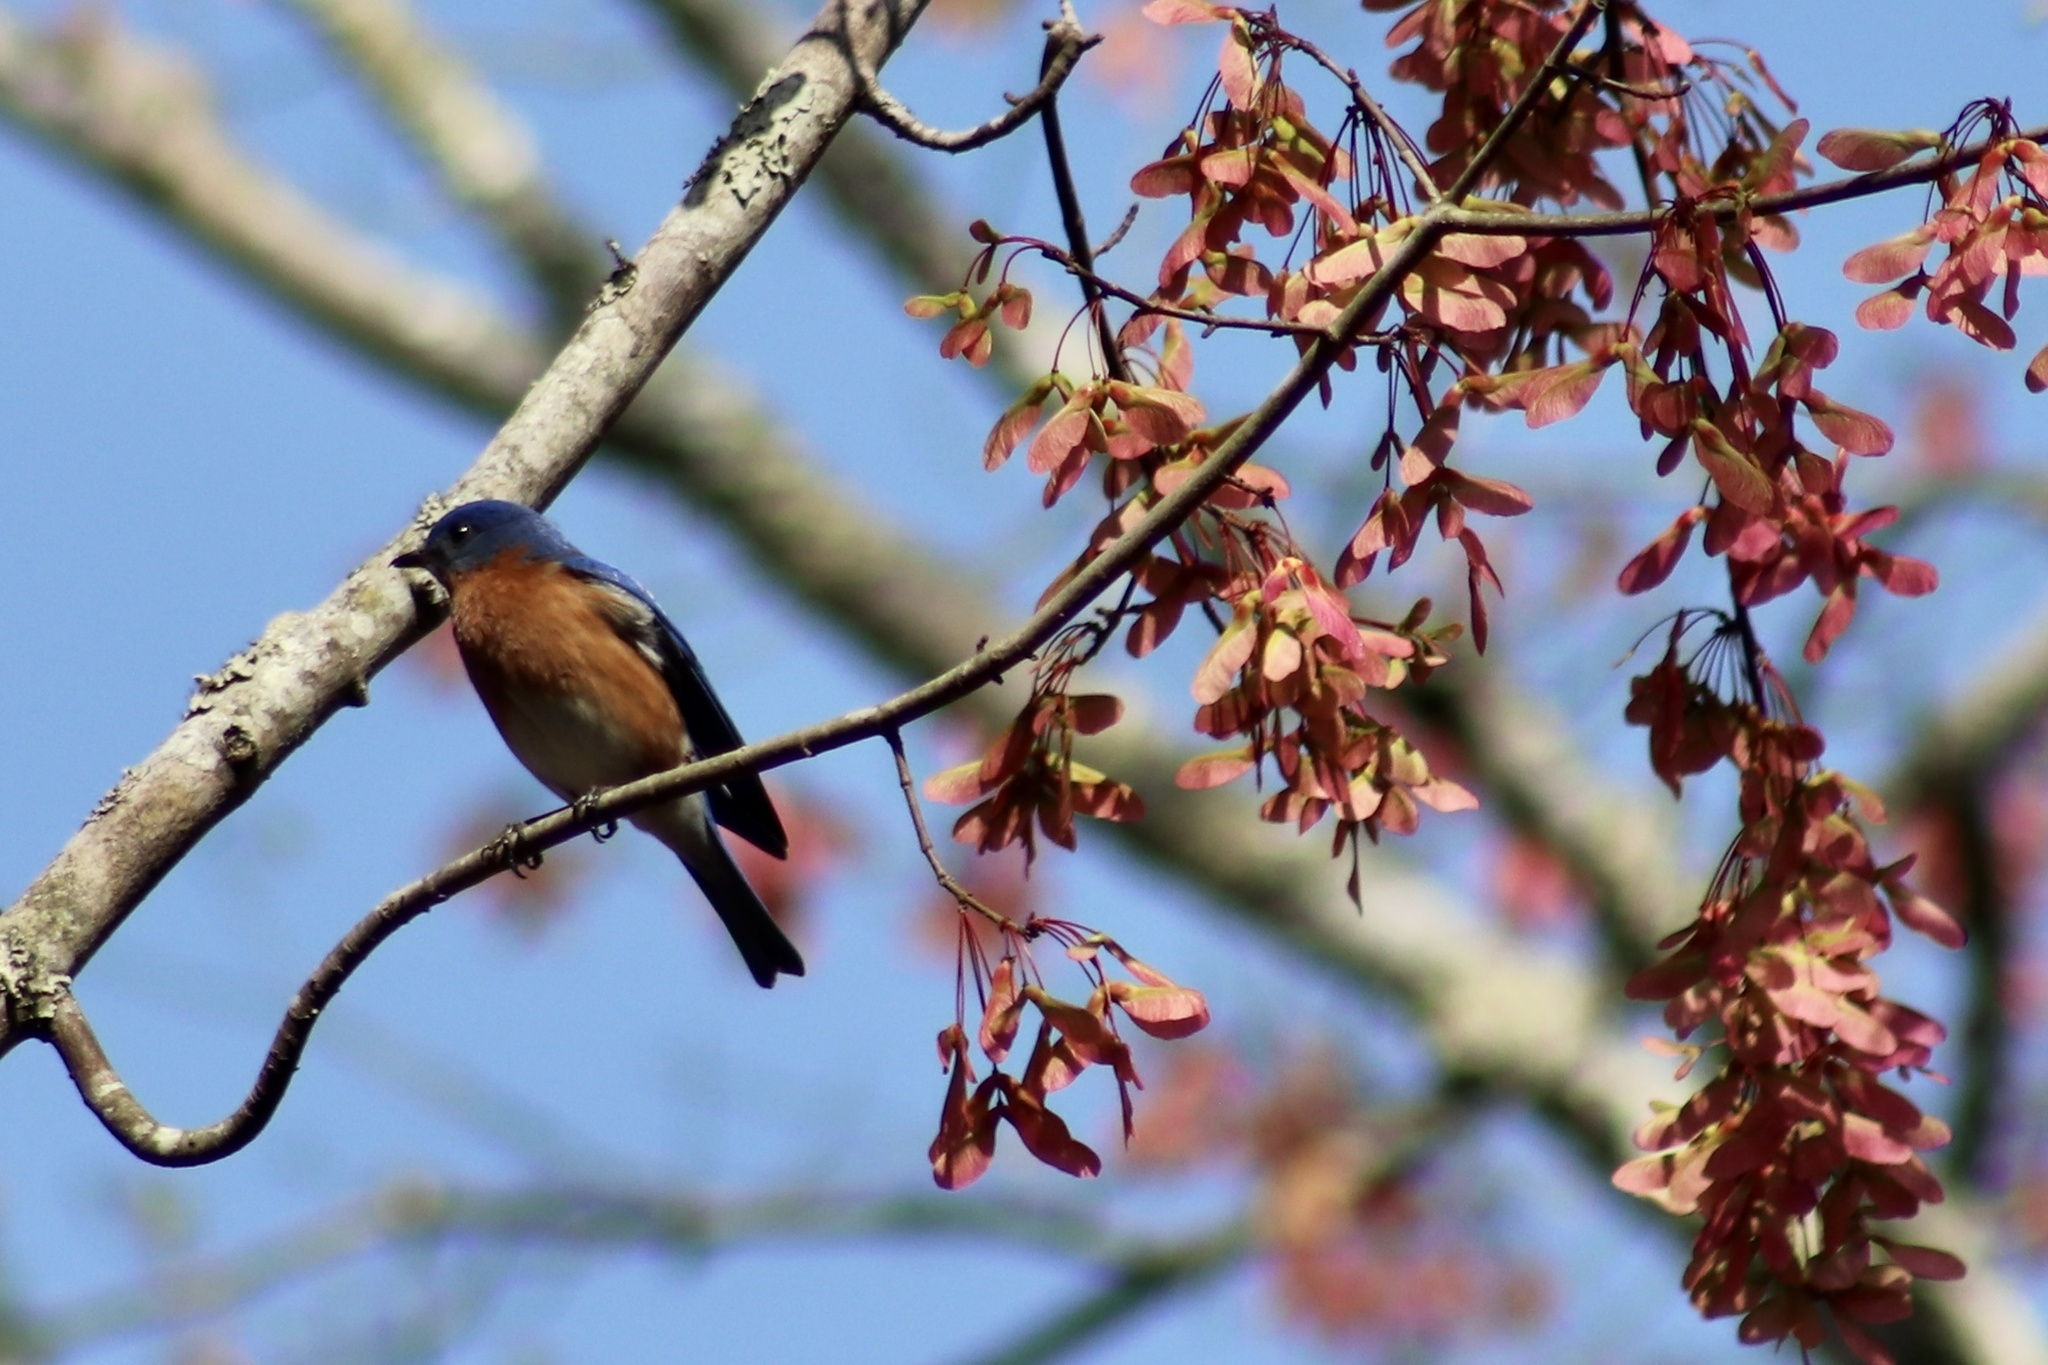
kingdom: Animalia
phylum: Chordata
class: Aves
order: Passeriformes
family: Turdidae
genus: Sialia
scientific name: Sialia sialis
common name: Eastern bluebird
